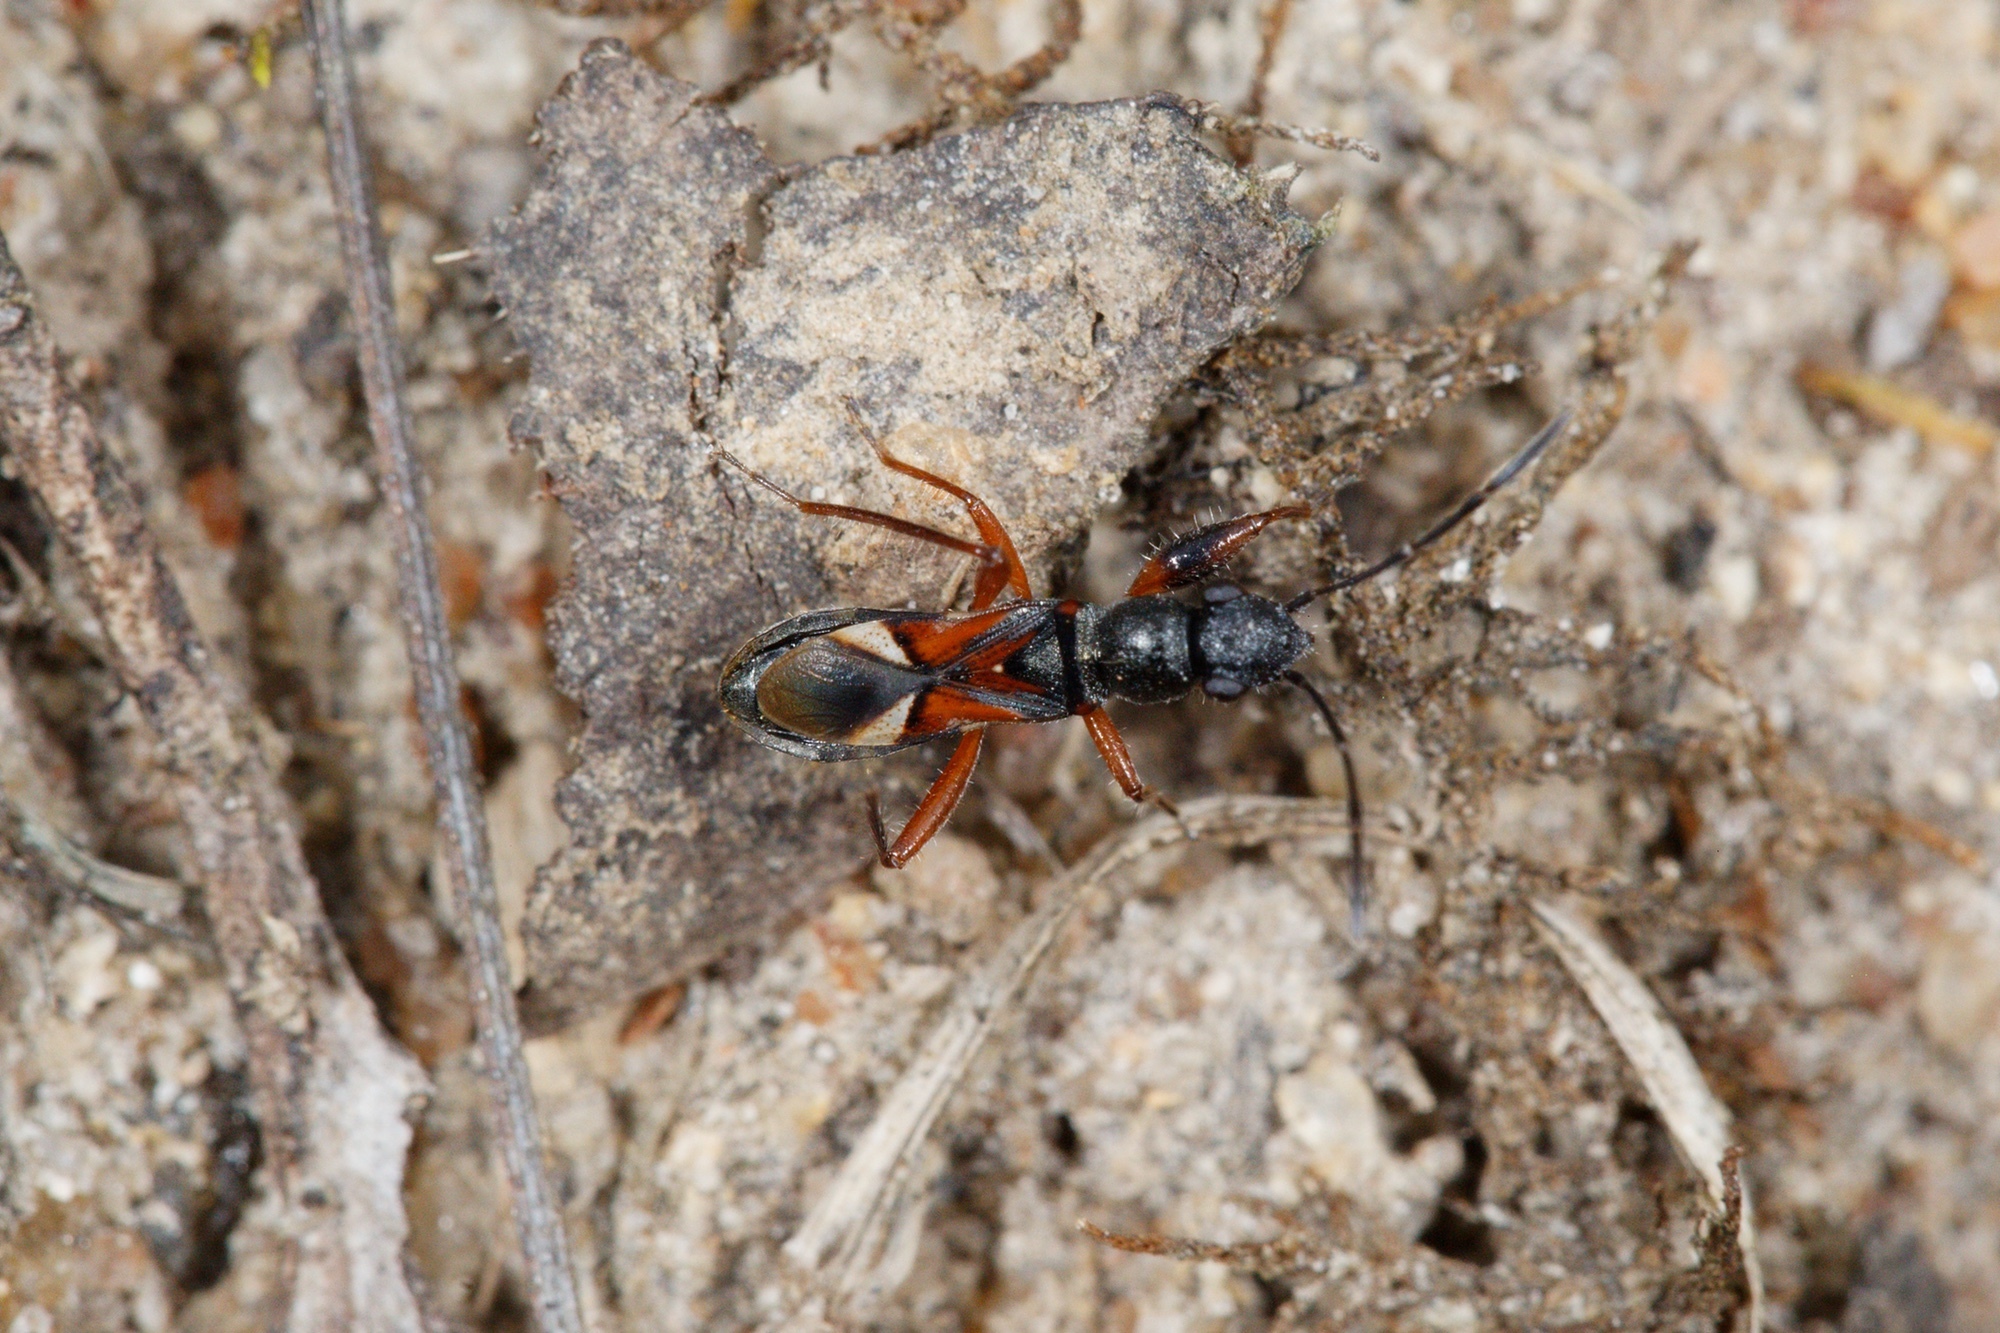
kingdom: Animalia
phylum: Arthropoda
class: Insecta
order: Hemiptera
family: Rhyparochromidae
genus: Daerlac
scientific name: Daerlac cephalotes
